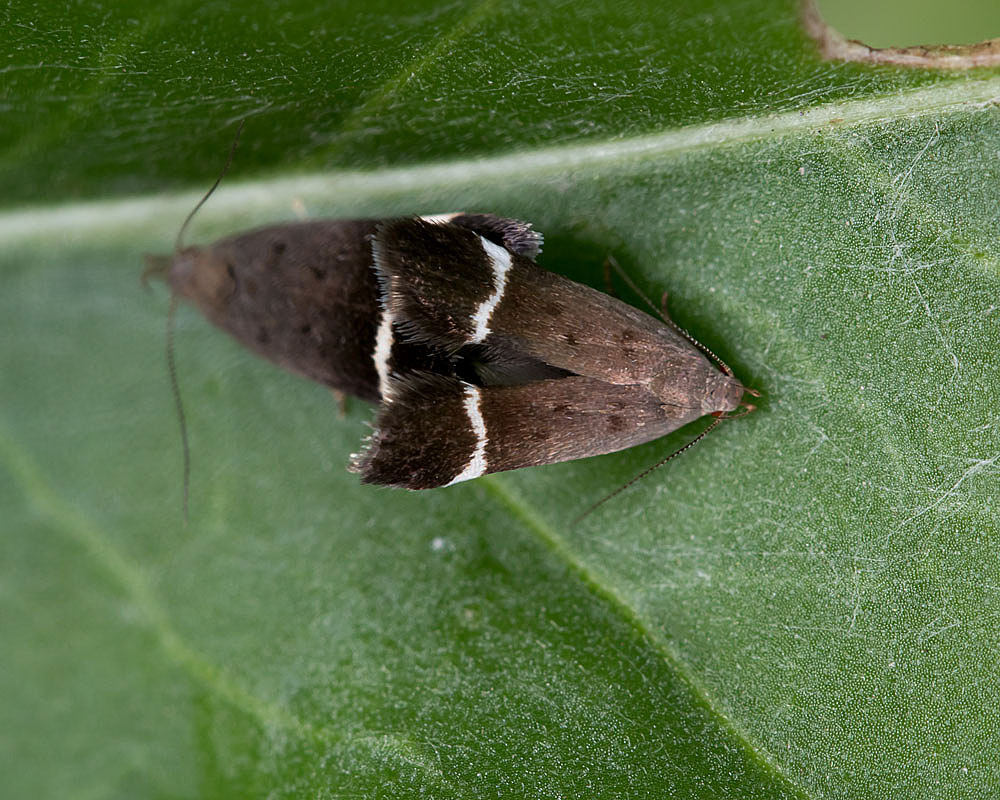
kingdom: Animalia
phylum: Arthropoda
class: Insecta
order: Lepidoptera
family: Gelechiidae
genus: Anacampsis
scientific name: Anacampsis agrimoniella
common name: Agrimony anacampsis moth
